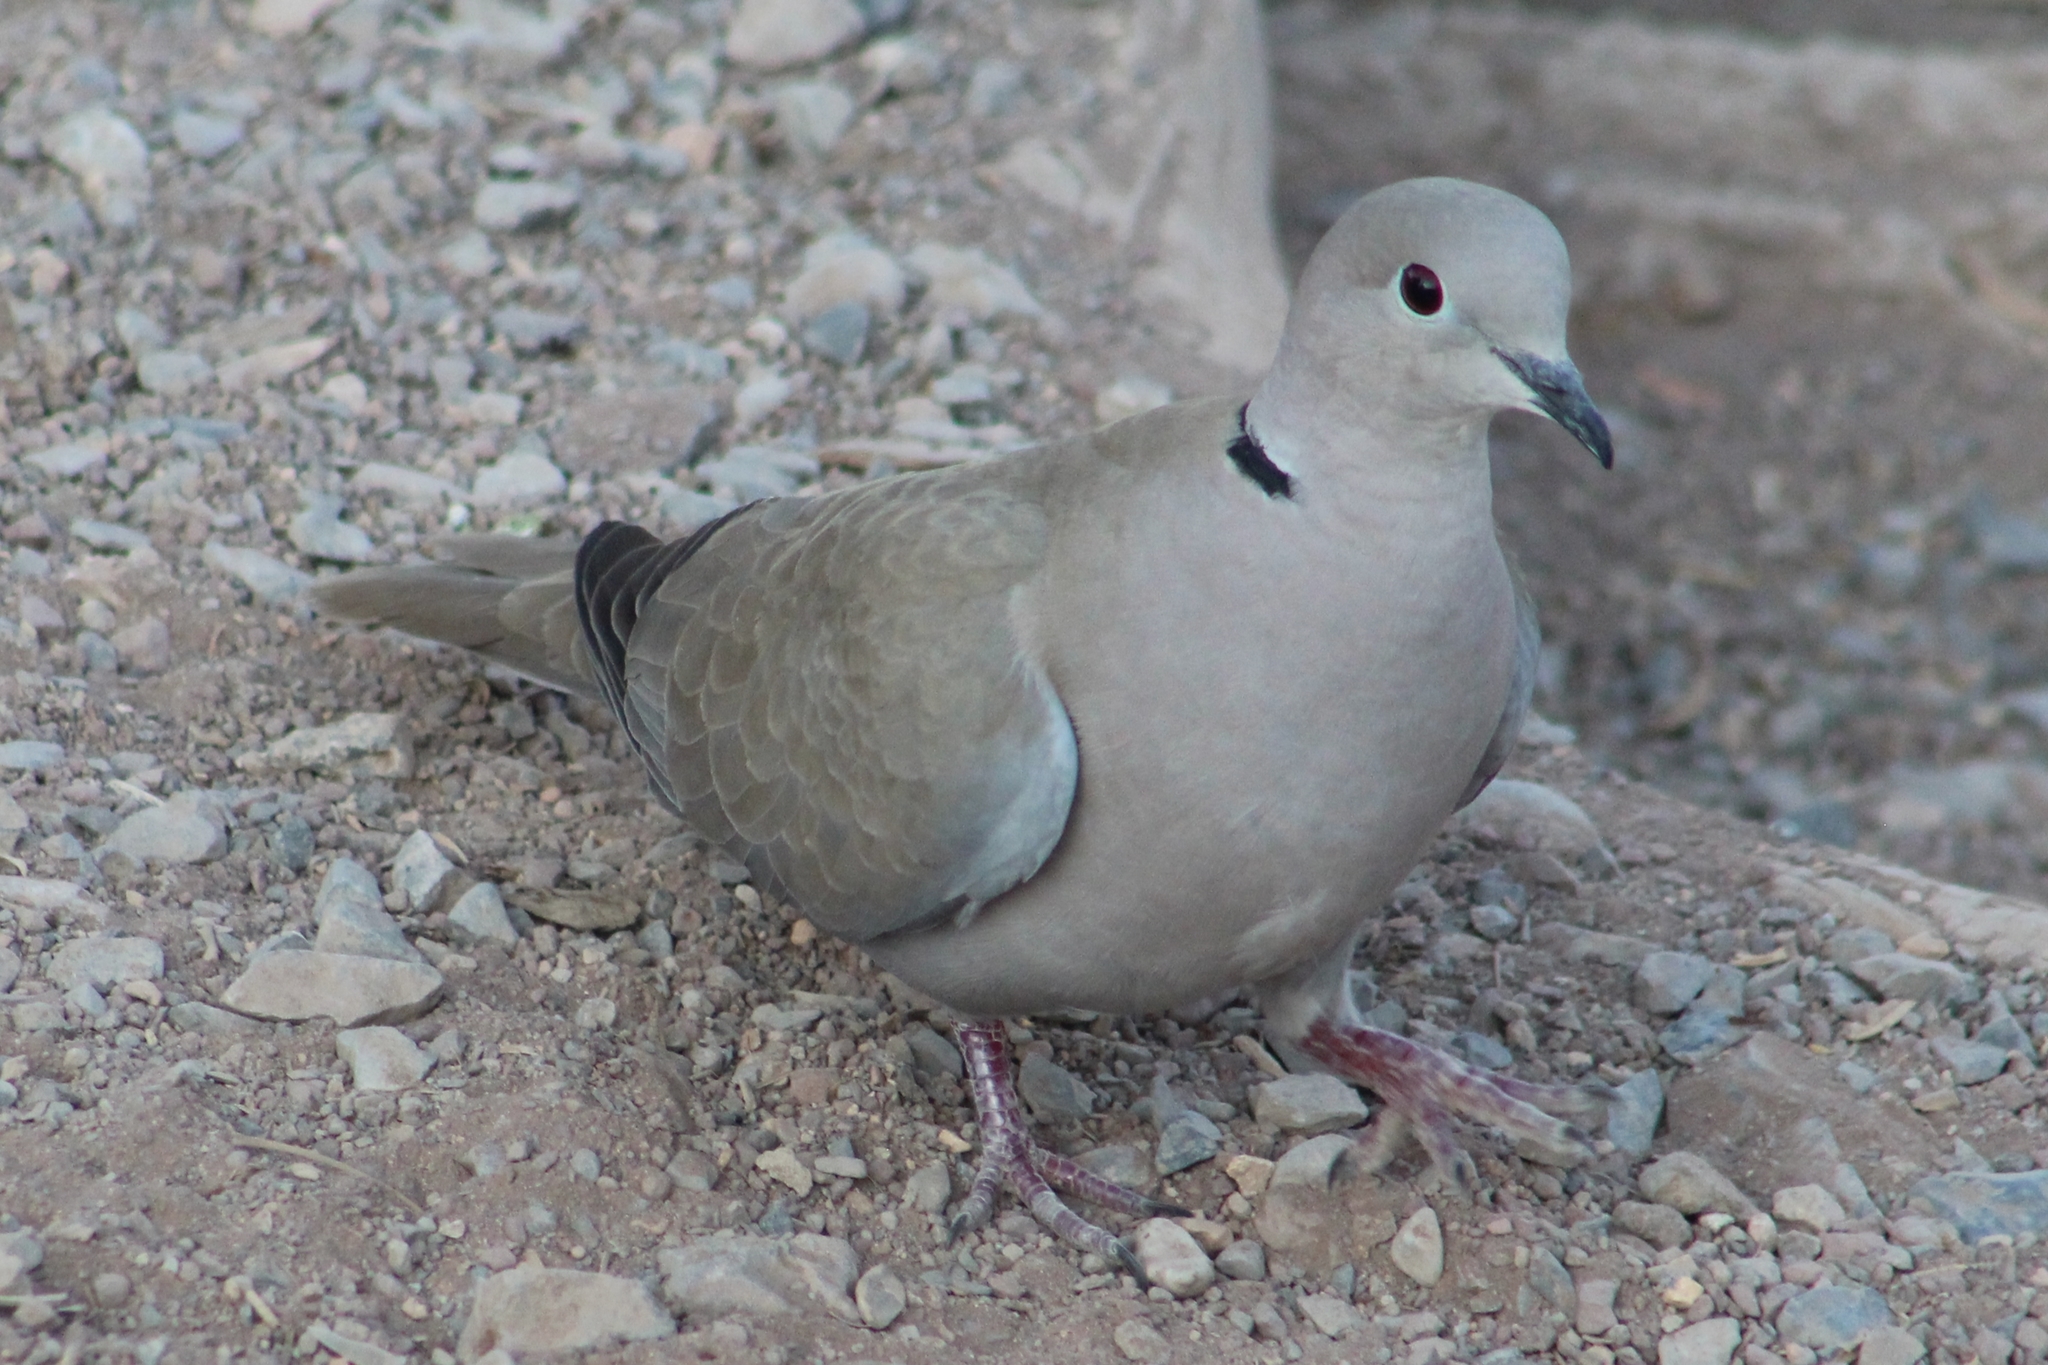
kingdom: Animalia
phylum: Chordata
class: Aves
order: Columbiformes
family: Columbidae
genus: Streptopelia
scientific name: Streptopelia decaocto
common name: Eurasian collared dove
